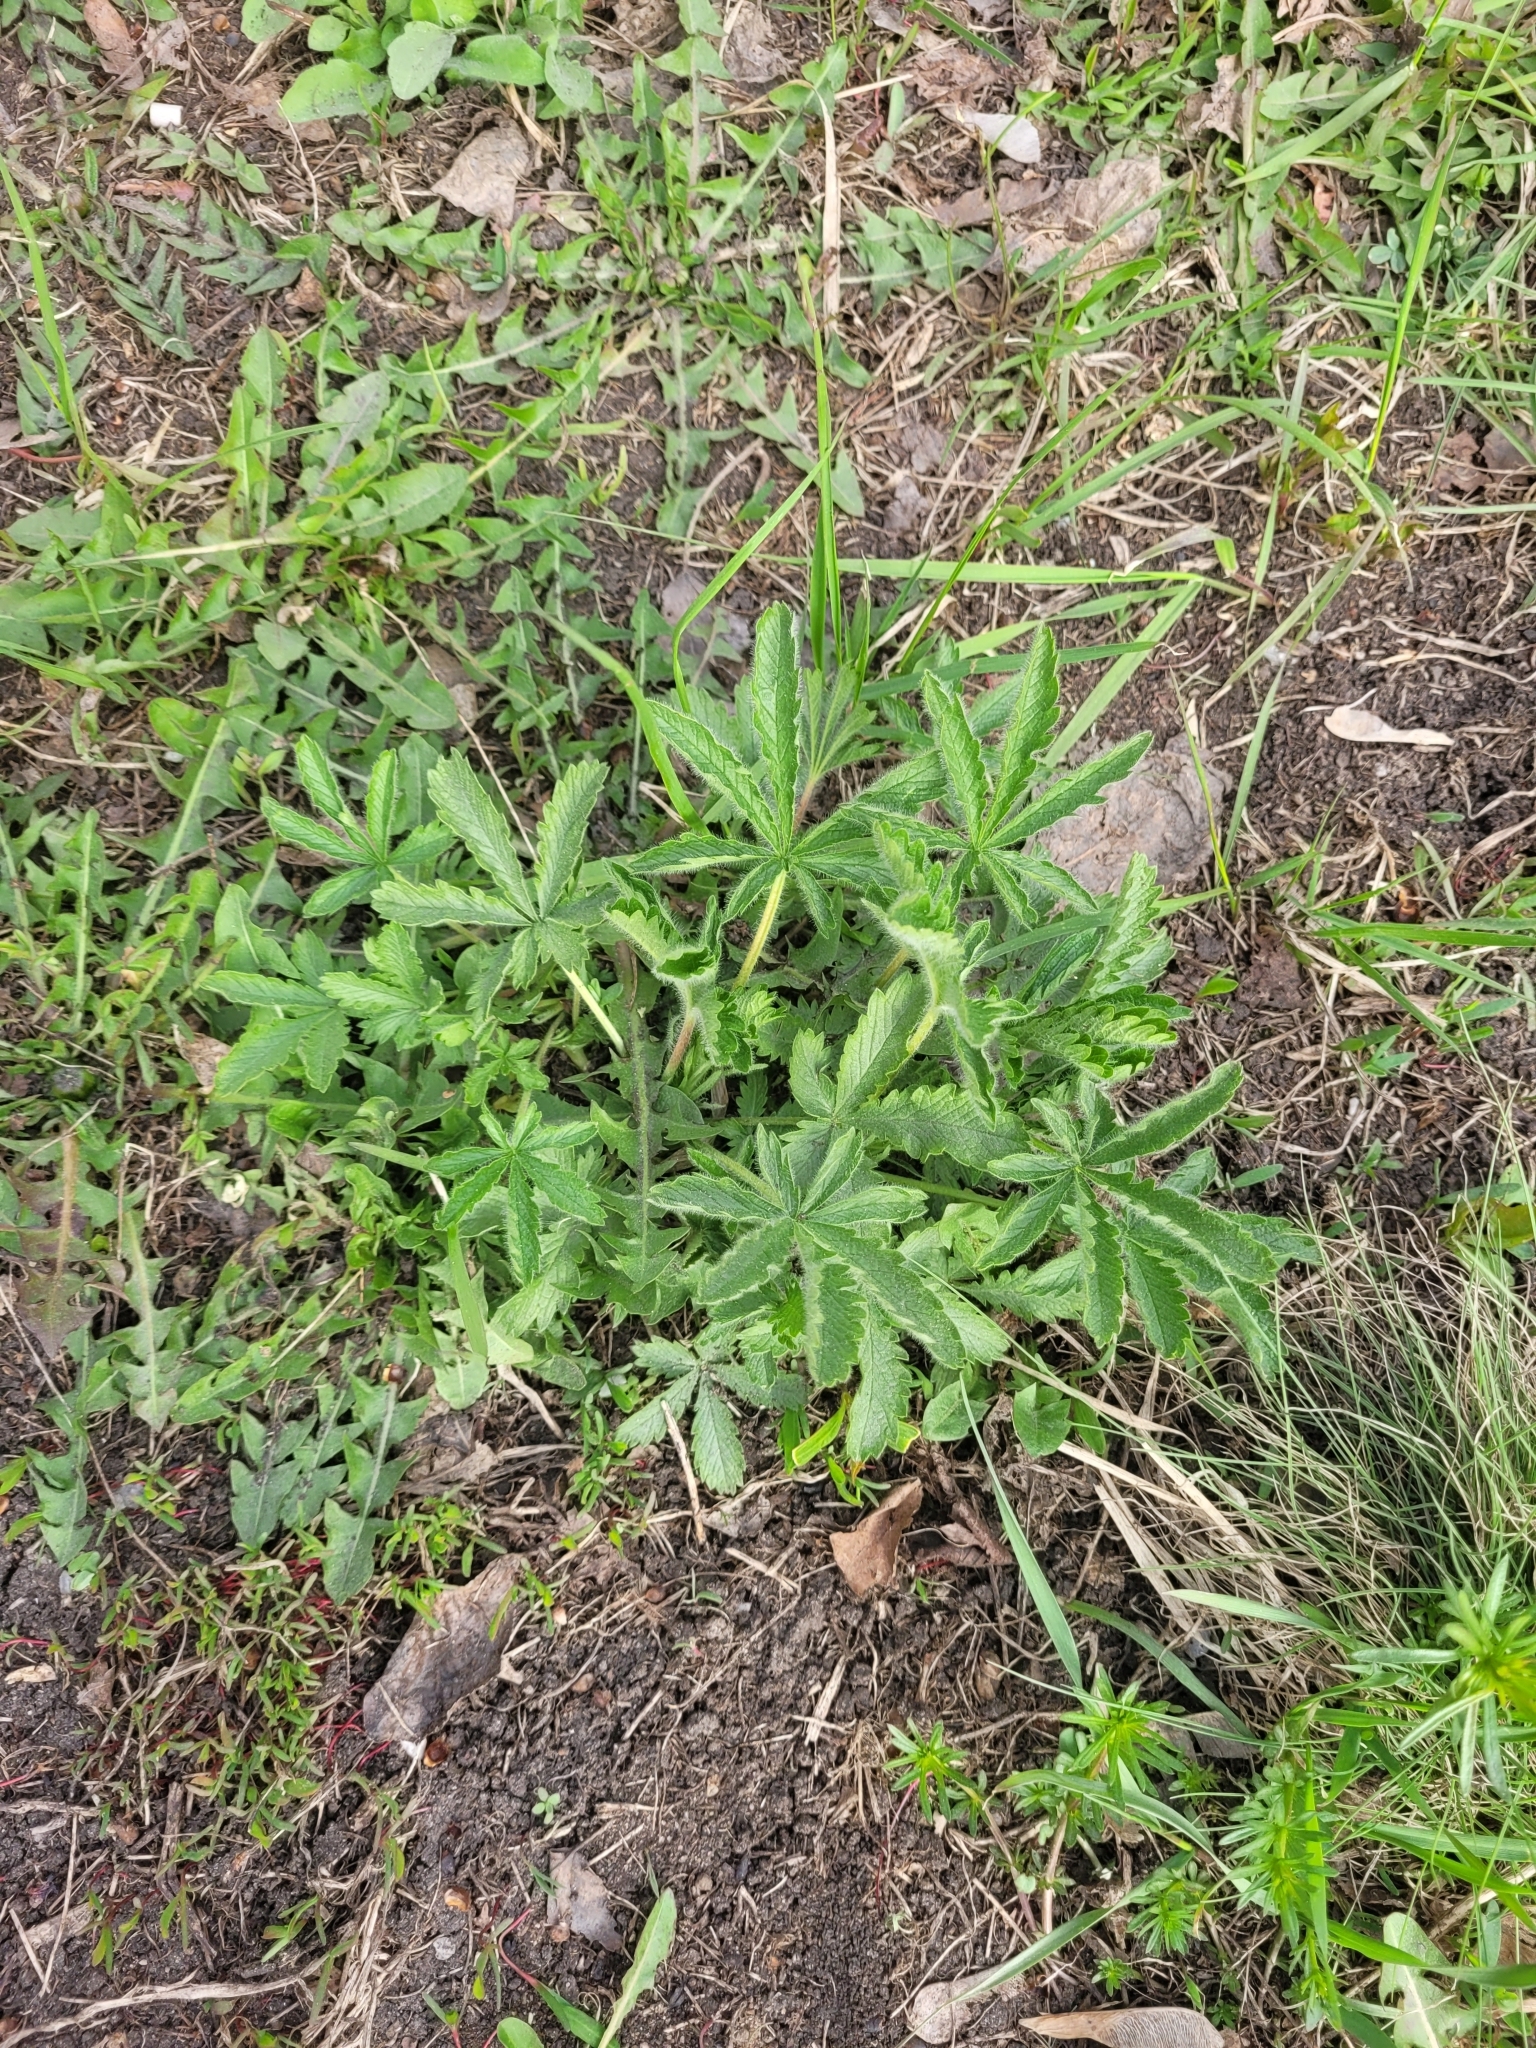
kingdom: Plantae
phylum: Tracheophyta
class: Magnoliopsida
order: Rosales
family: Rosaceae
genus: Potentilla
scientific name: Potentilla recta
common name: Sulphur cinquefoil
